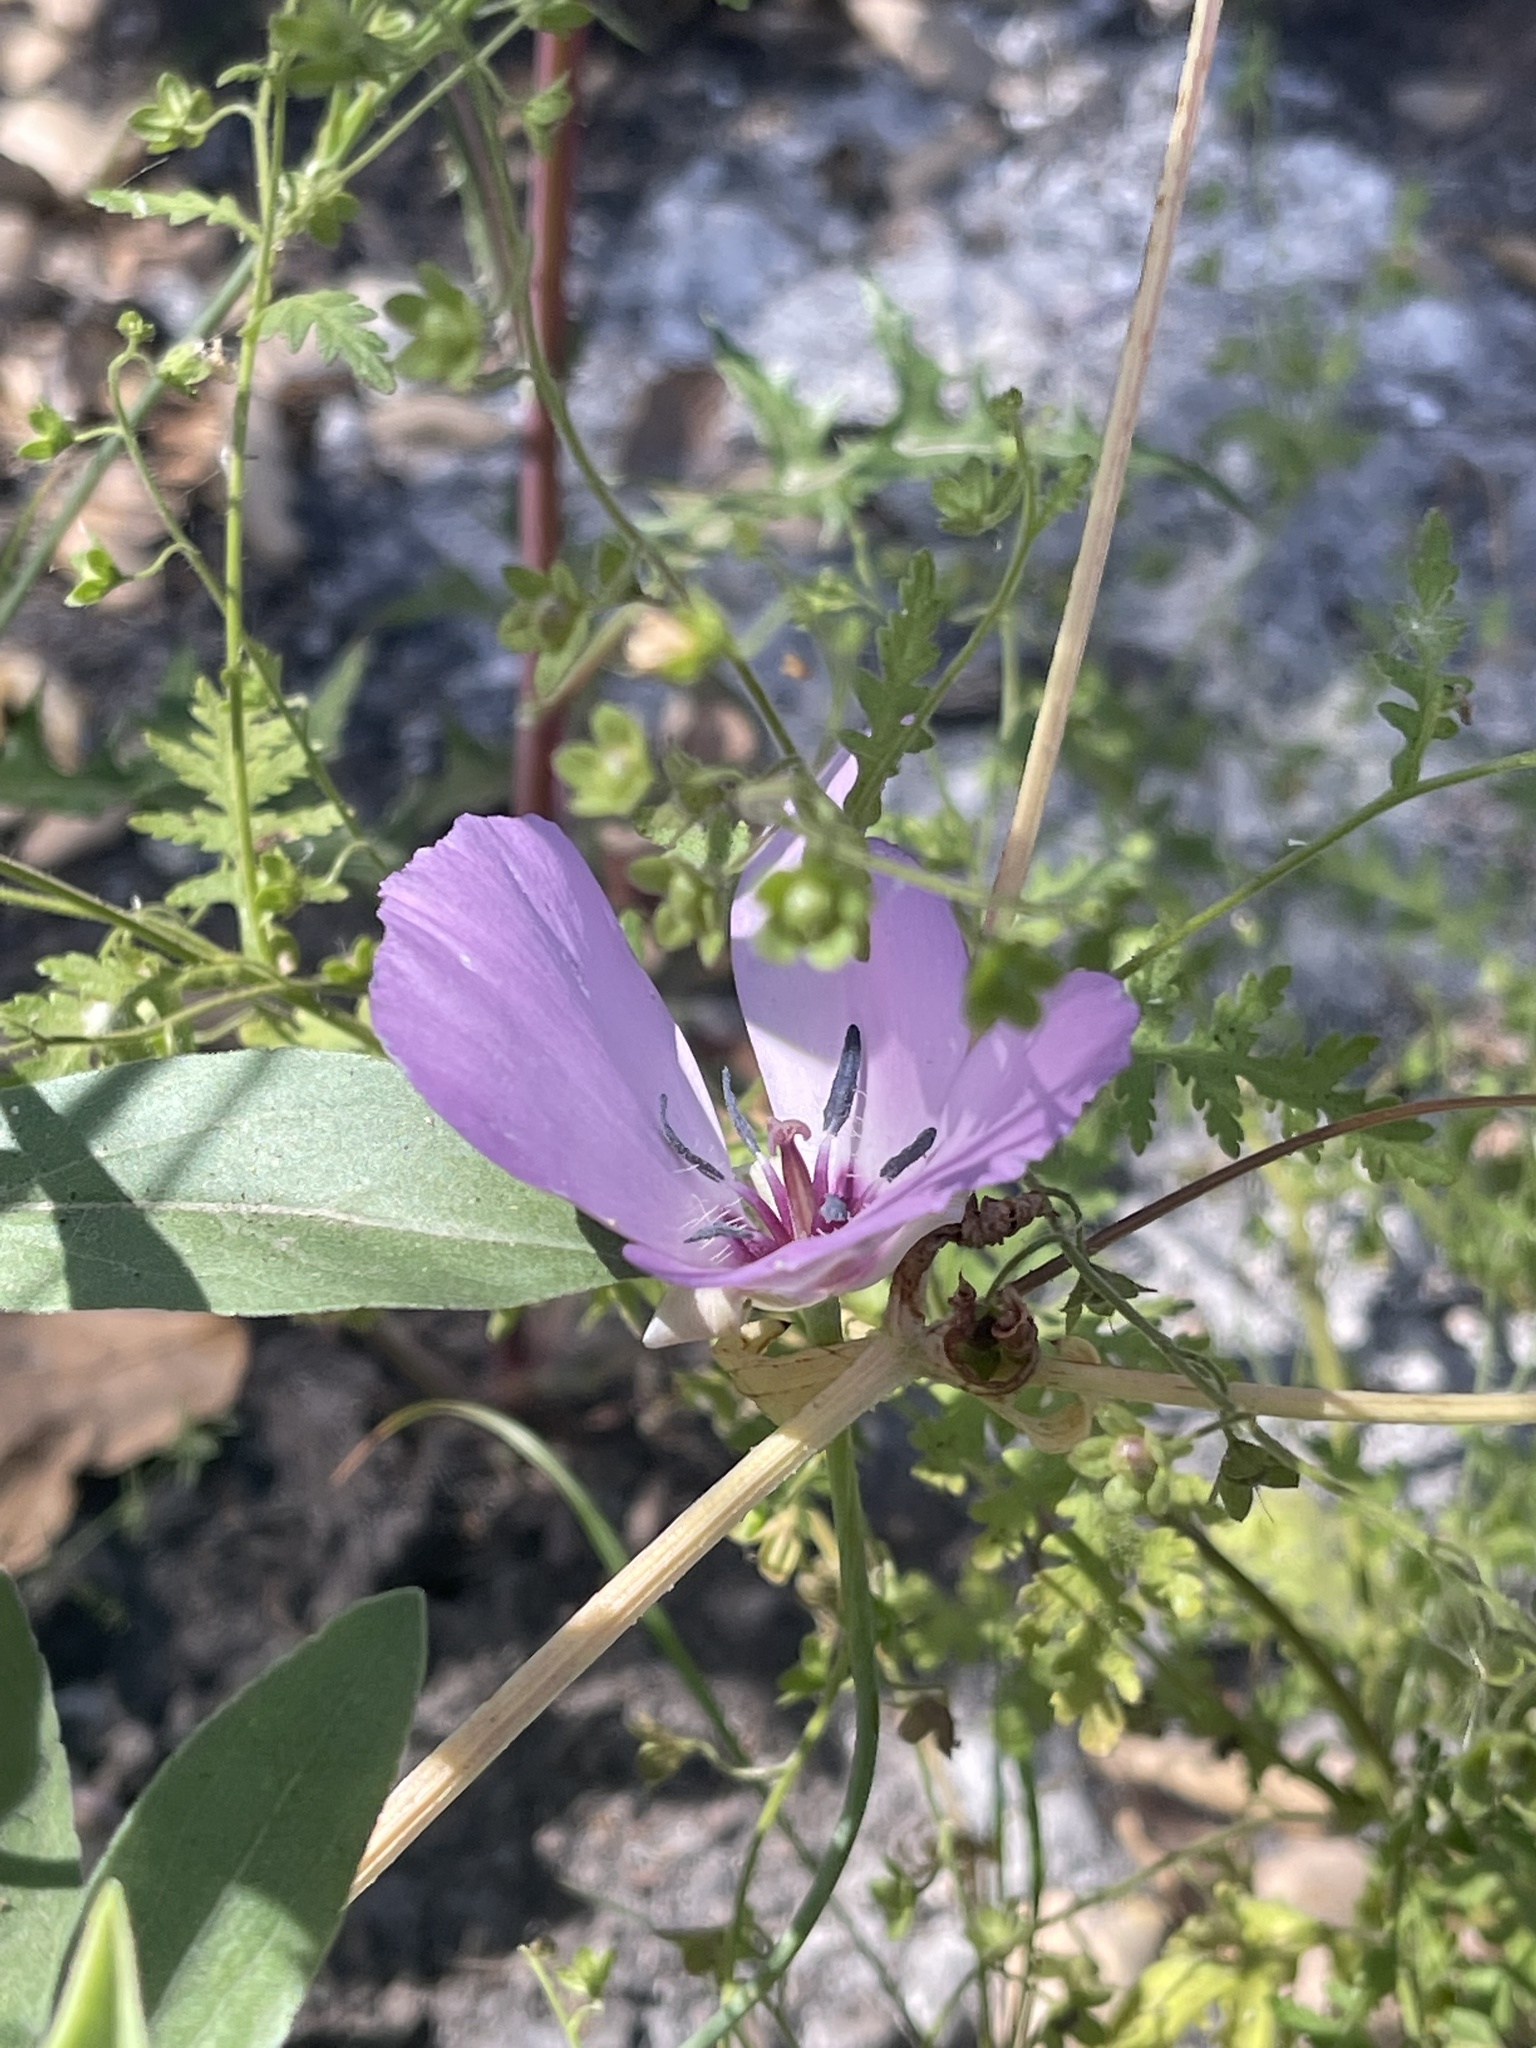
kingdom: Plantae
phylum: Tracheophyta
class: Liliopsida
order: Liliales
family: Liliaceae
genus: Calochortus
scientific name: Calochortus splendens
